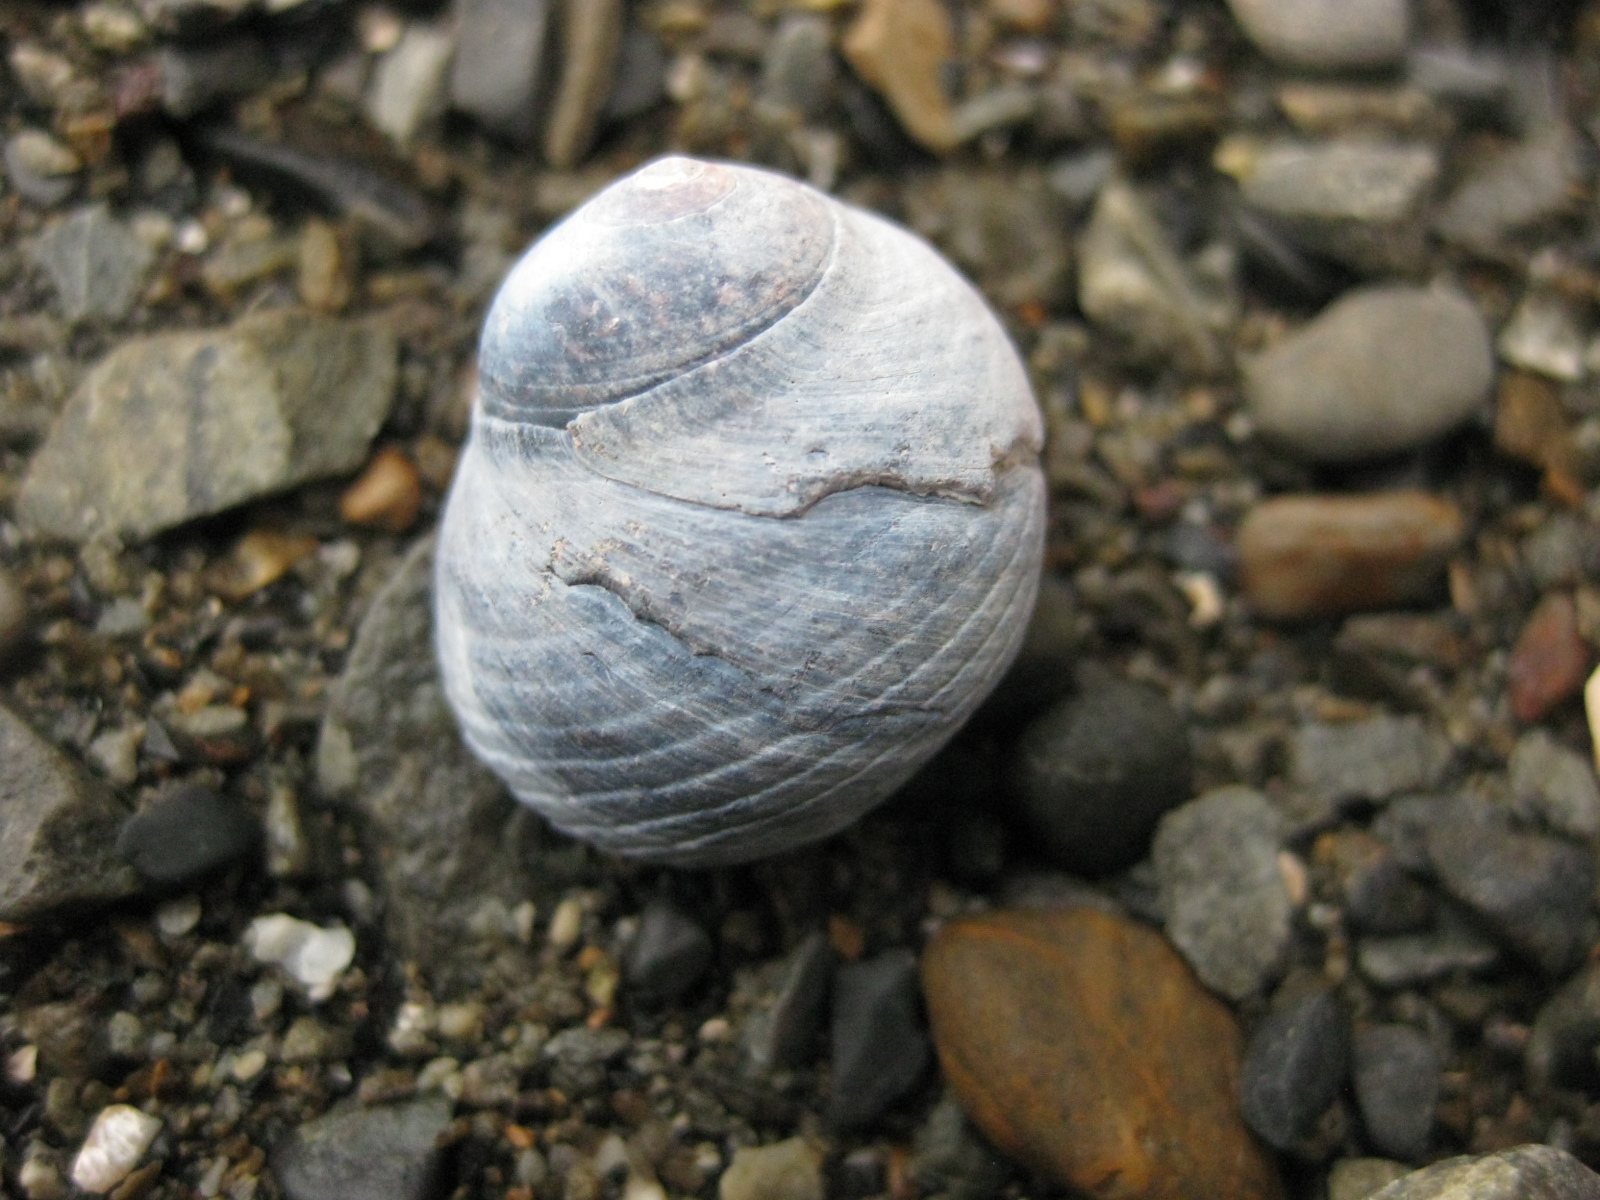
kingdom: Animalia
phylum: Mollusca
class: Gastropoda
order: Trochida
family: Trochidae
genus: Diloma
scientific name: Diloma nigerrimum
